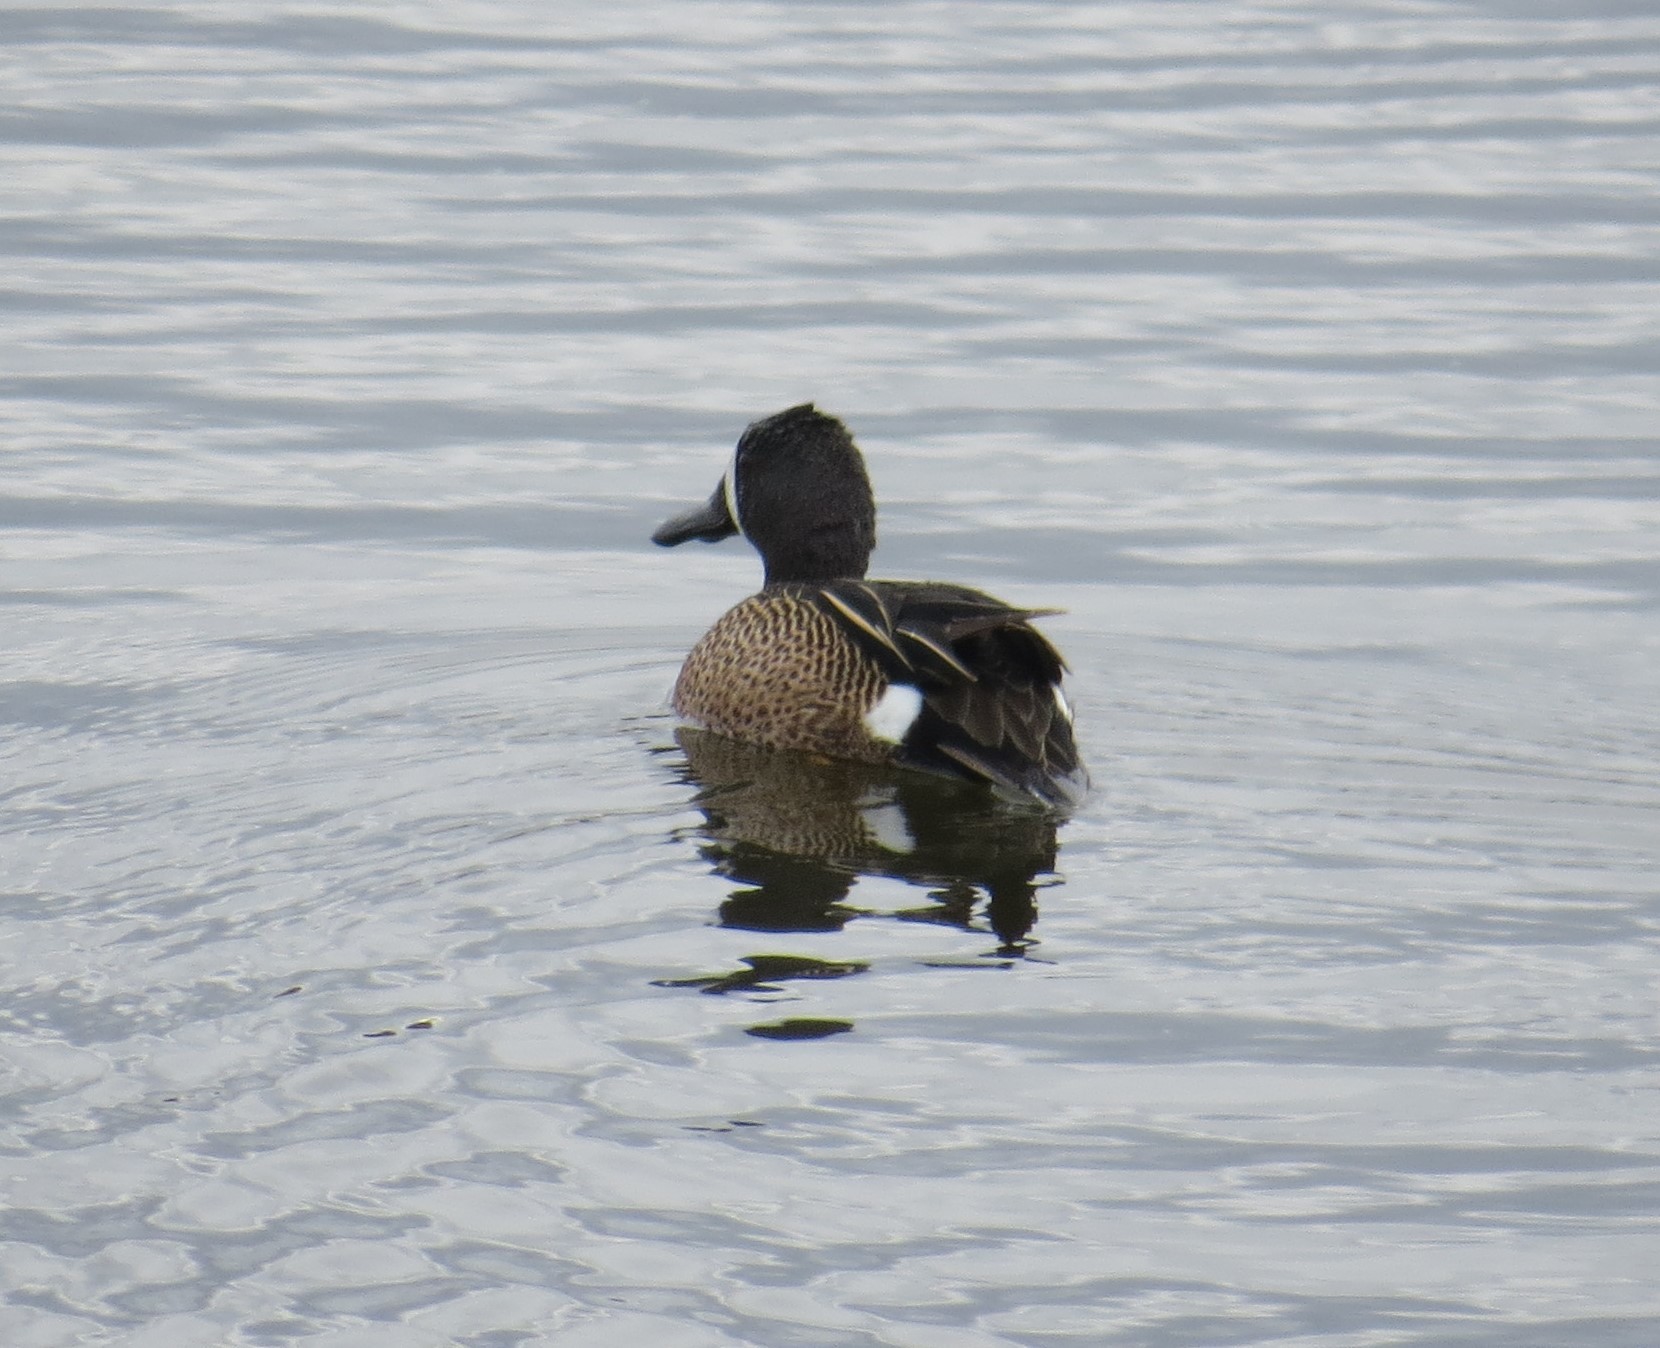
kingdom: Animalia
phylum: Chordata
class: Aves
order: Anseriformes
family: Anatidae
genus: Spatula
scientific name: Spatula discors
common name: Blue-winged teal
